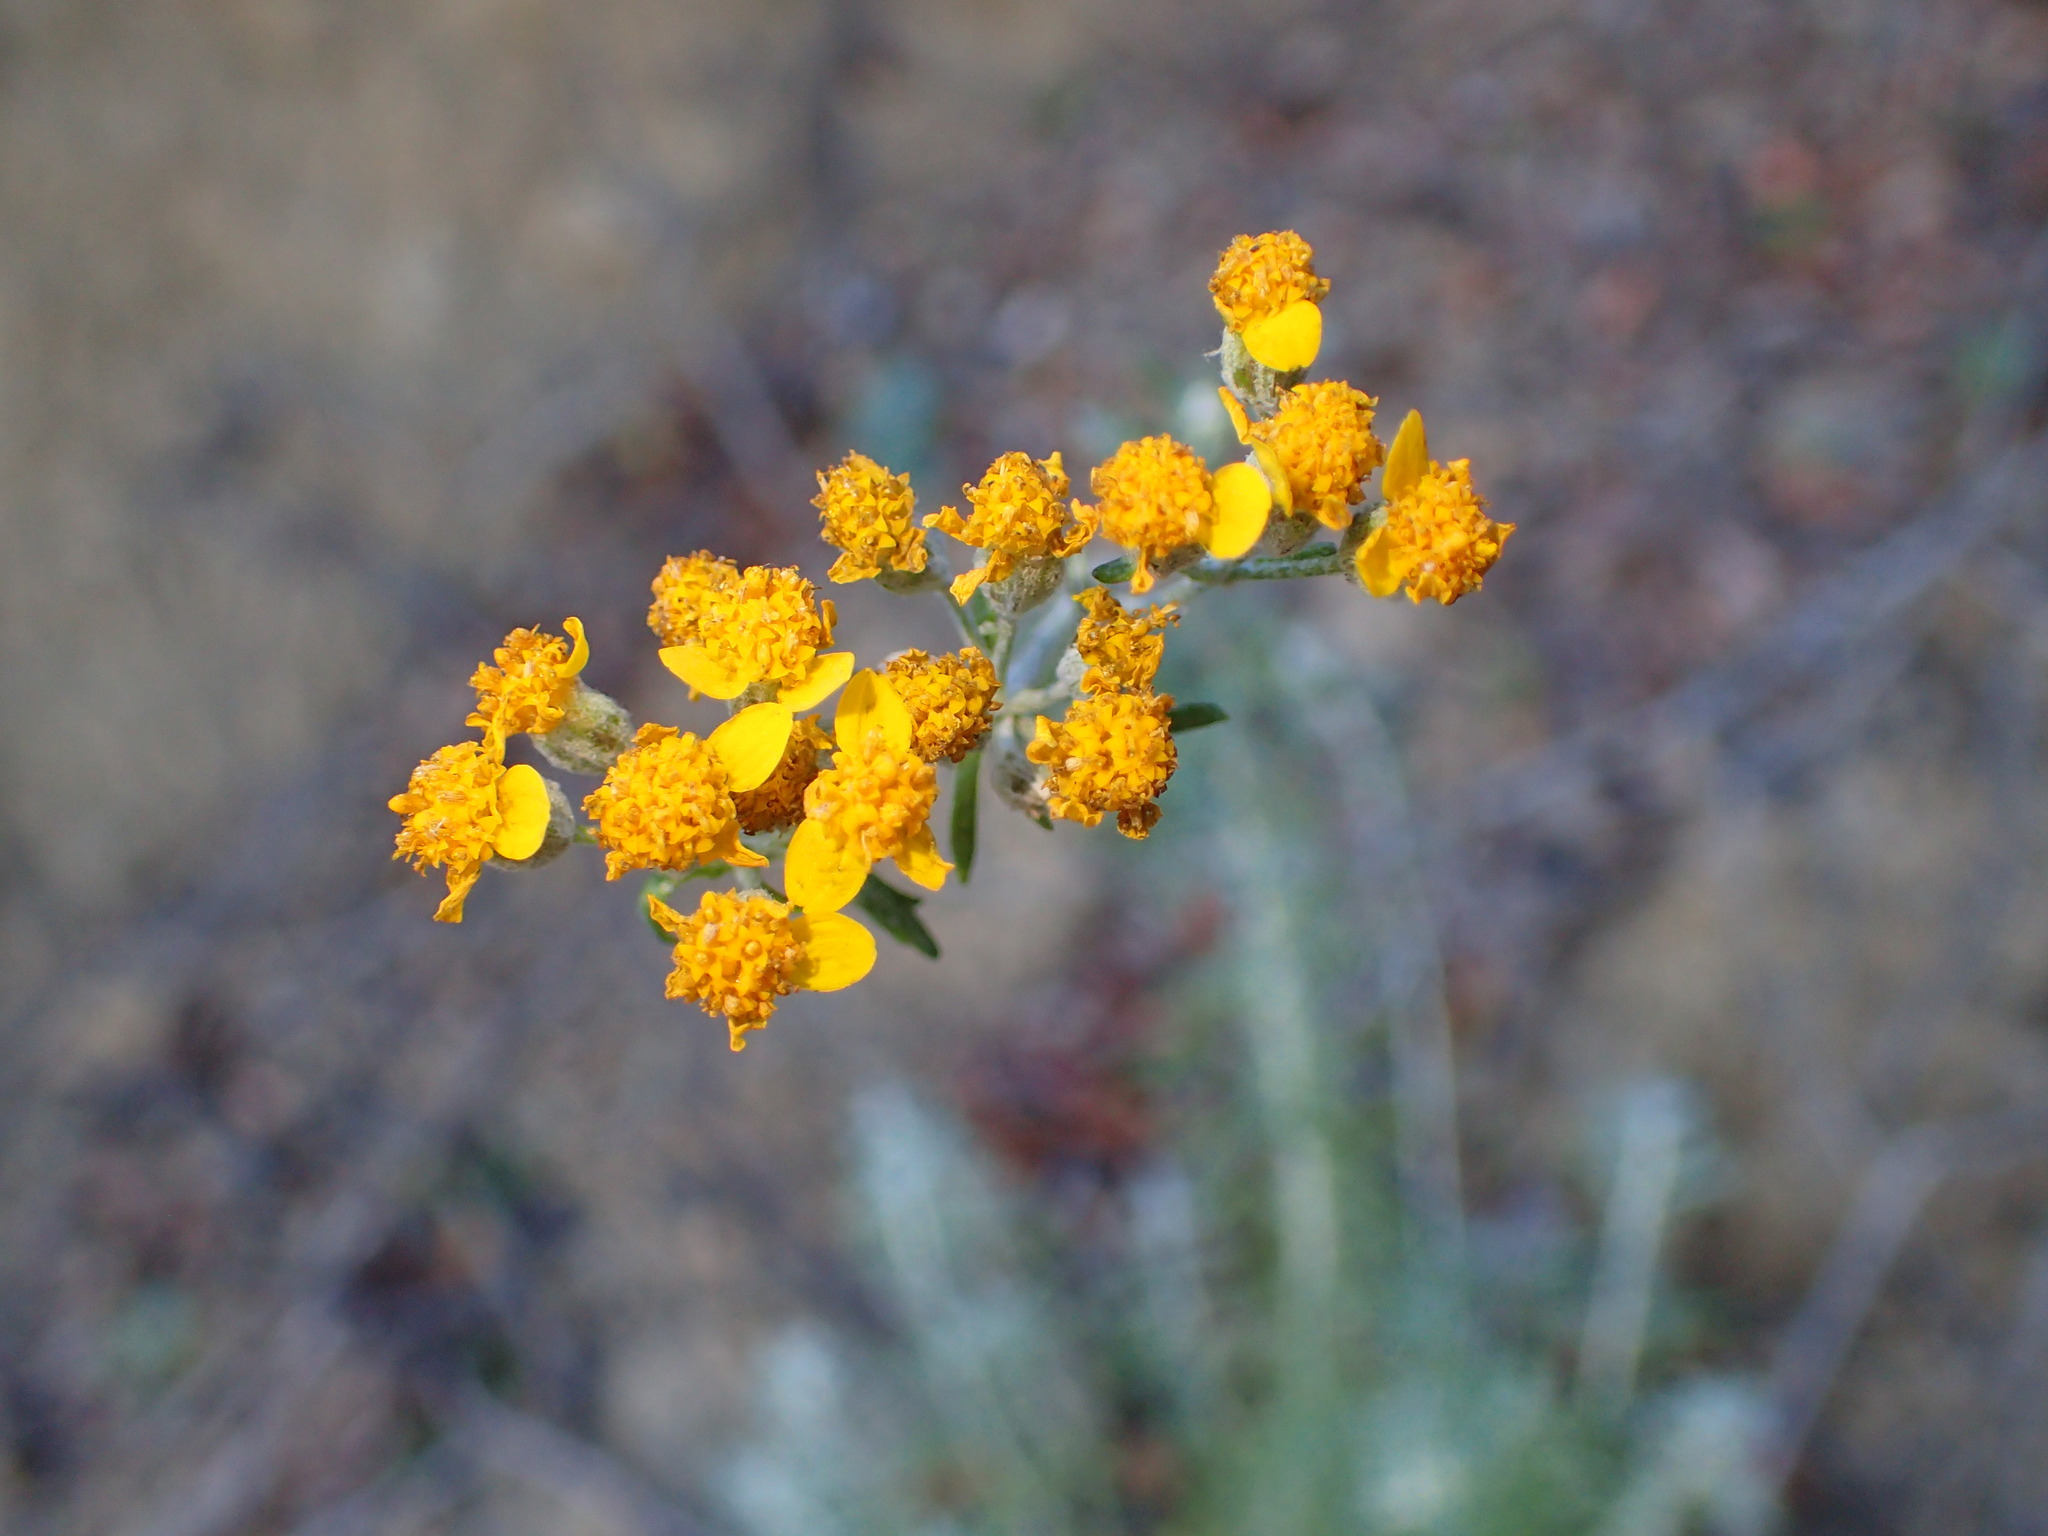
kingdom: Plantae
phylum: Tracheophyta
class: Magnoliopsida
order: Asterales
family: Asteraceae
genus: Eriophyllum
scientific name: Eriophyllum confertiflorum
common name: Golden-yarrow
